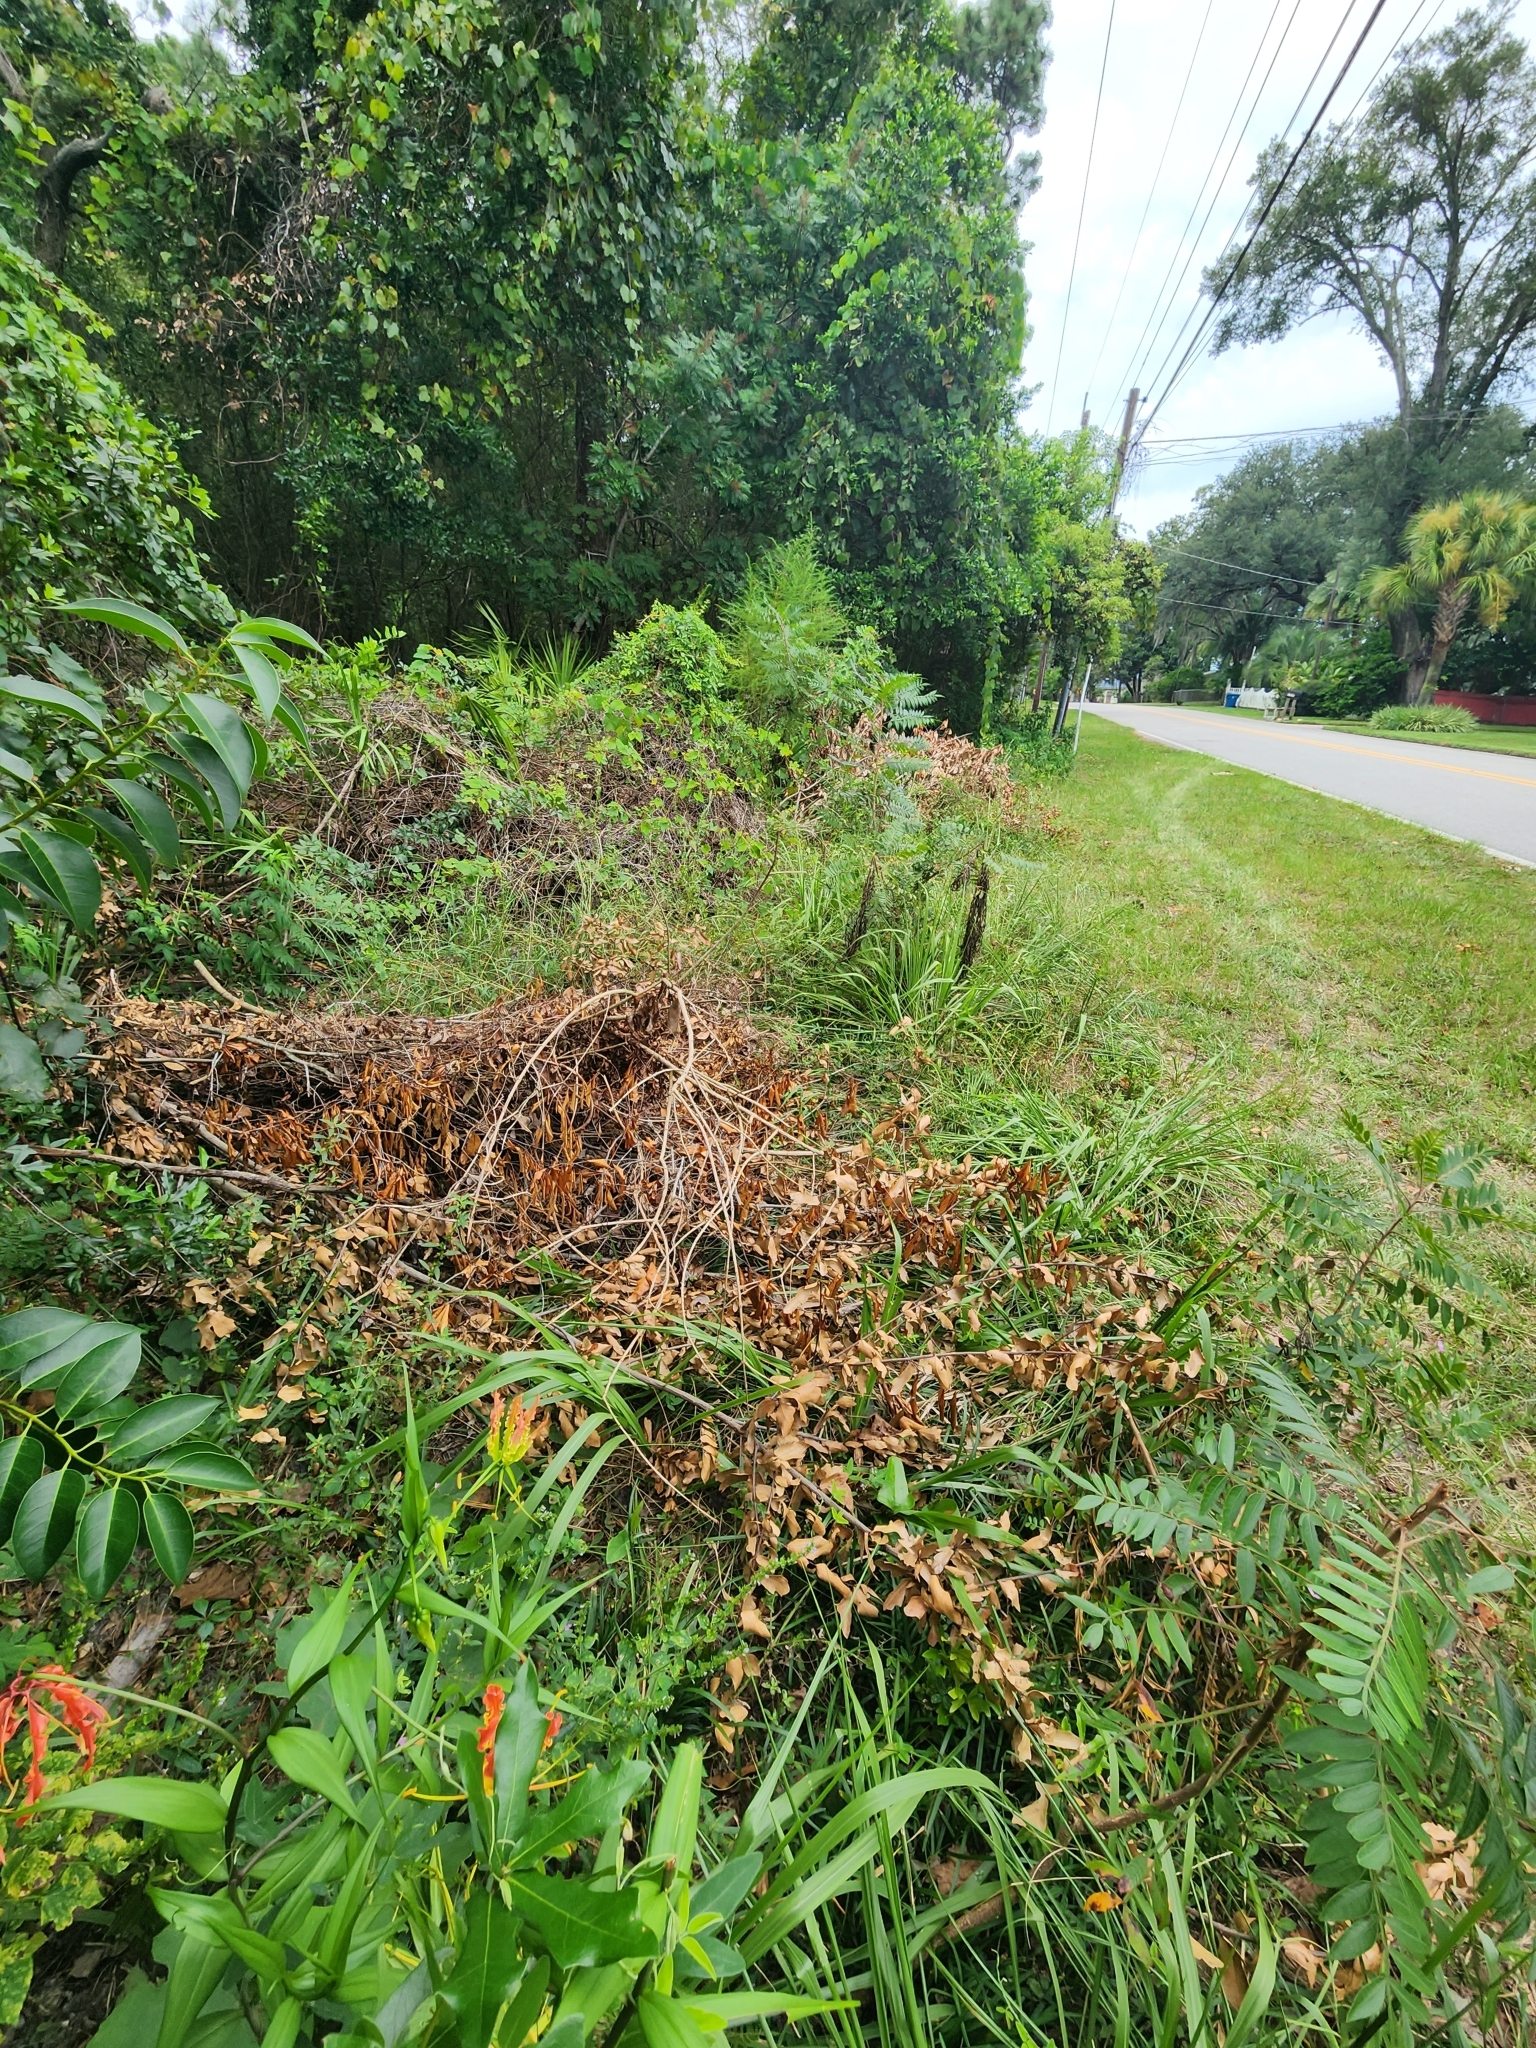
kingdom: Plantae
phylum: Tracheophyta
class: Liliopsida
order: Liliales
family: Colchicaceae
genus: Gloriosa
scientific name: Gloriosa superba
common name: Flame lily
